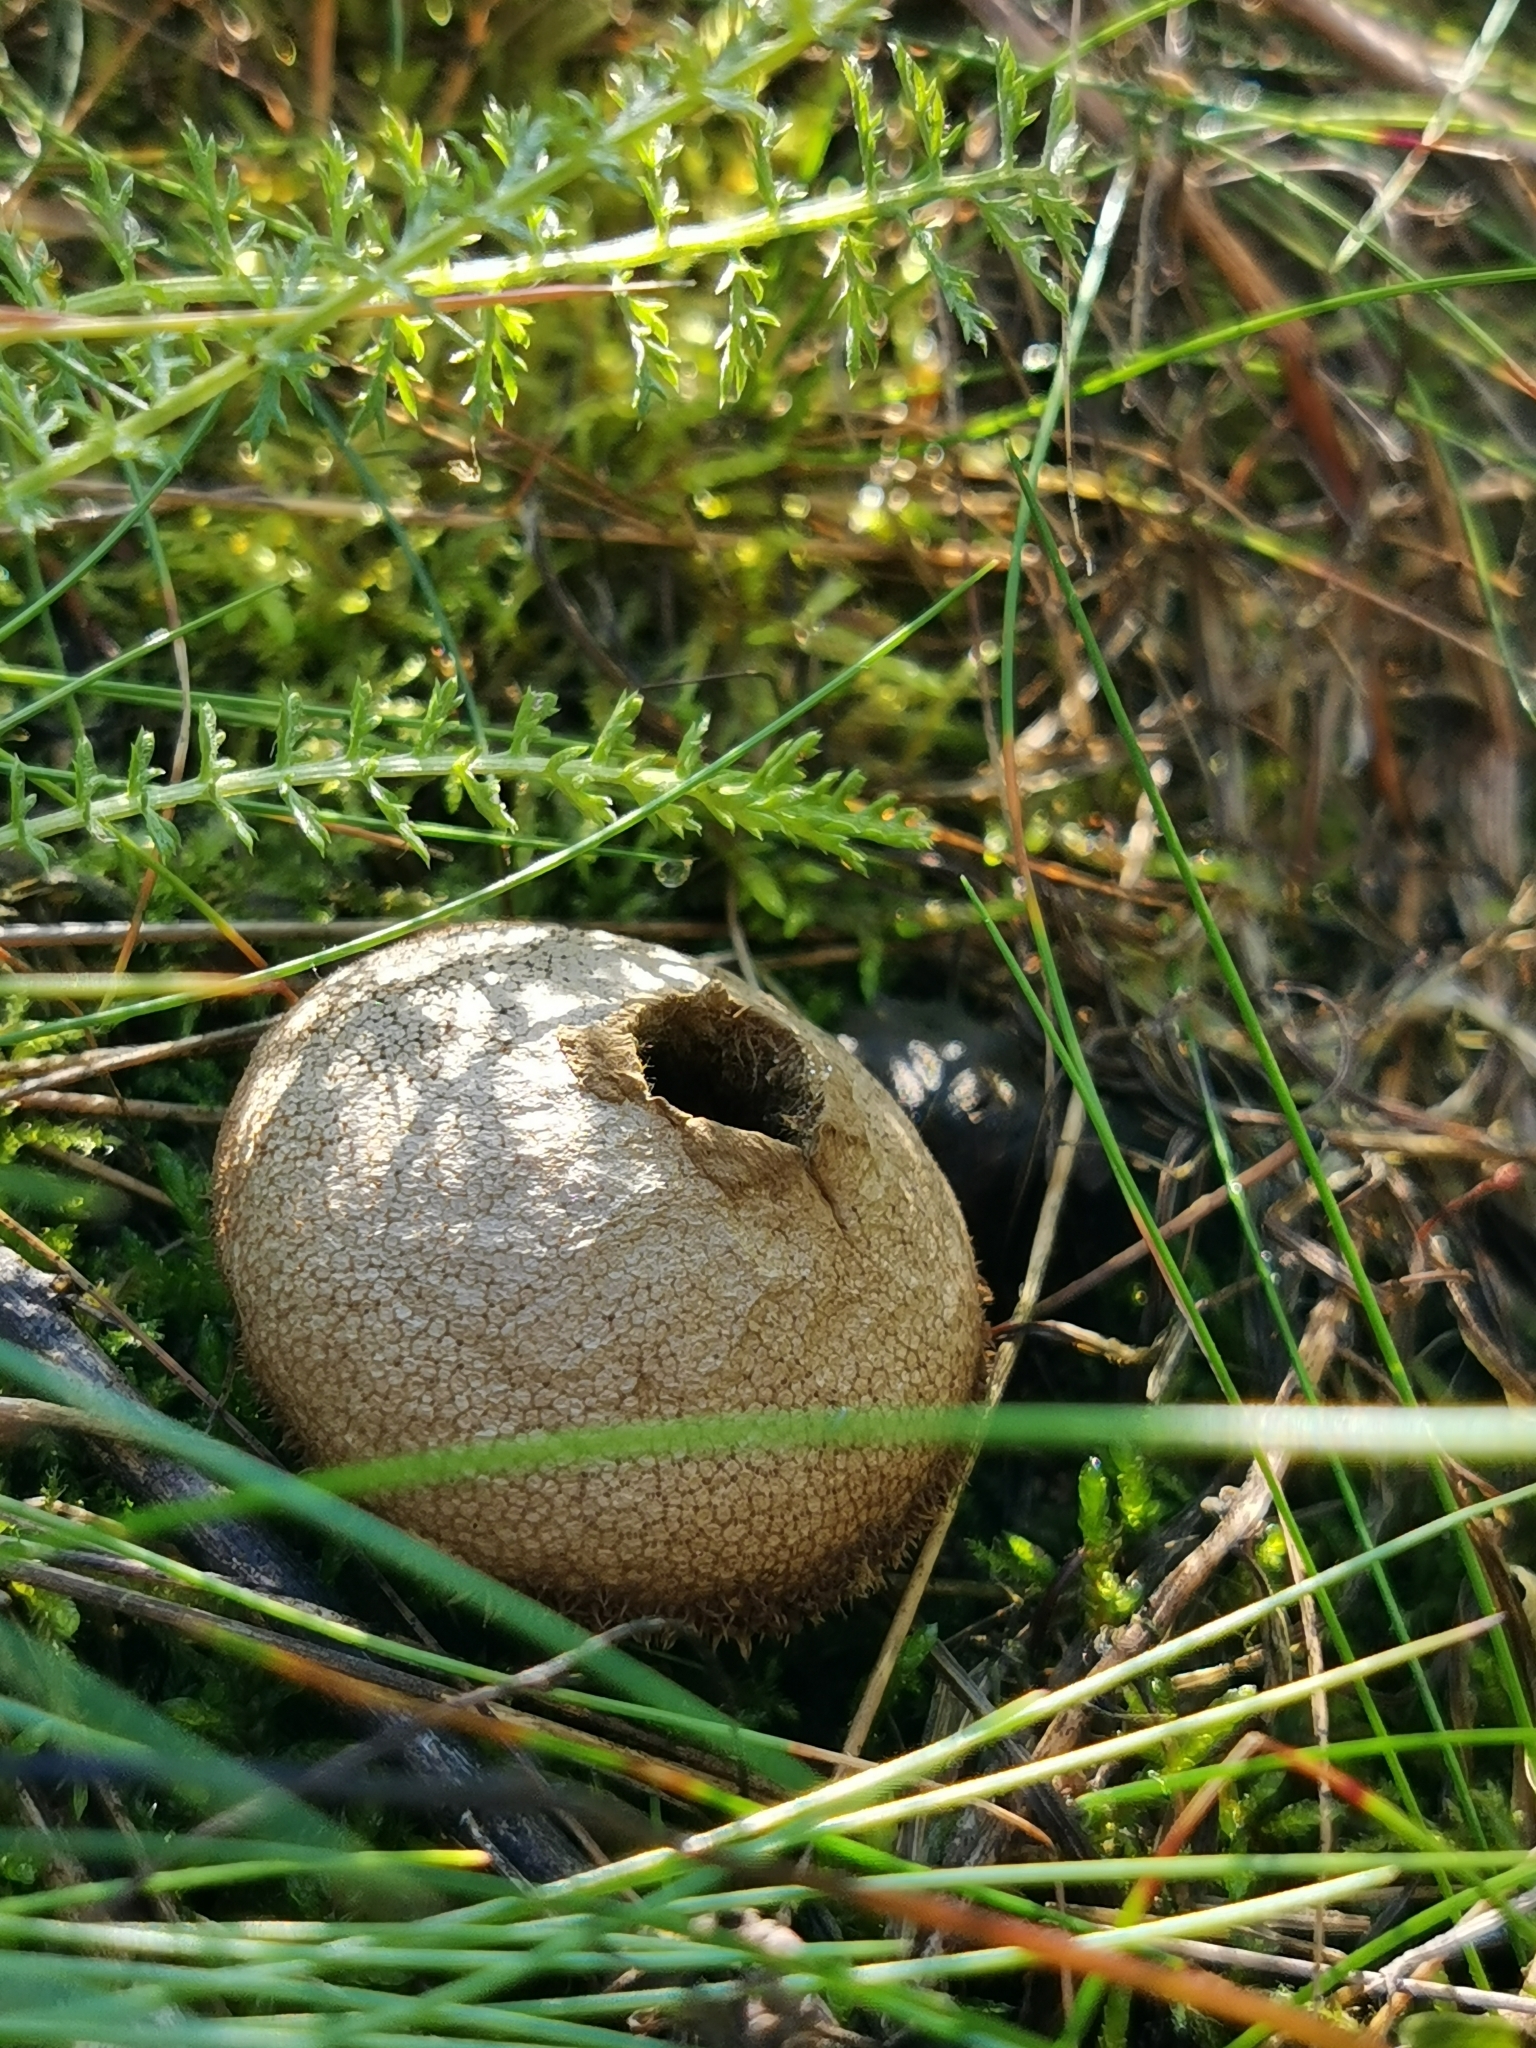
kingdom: Fungi
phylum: Basidiomycota
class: Agaricomycetes
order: Agaricales
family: Lycoperdaceae
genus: Lycoperdon
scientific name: Lycoperdon perlatum
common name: Common puffball
